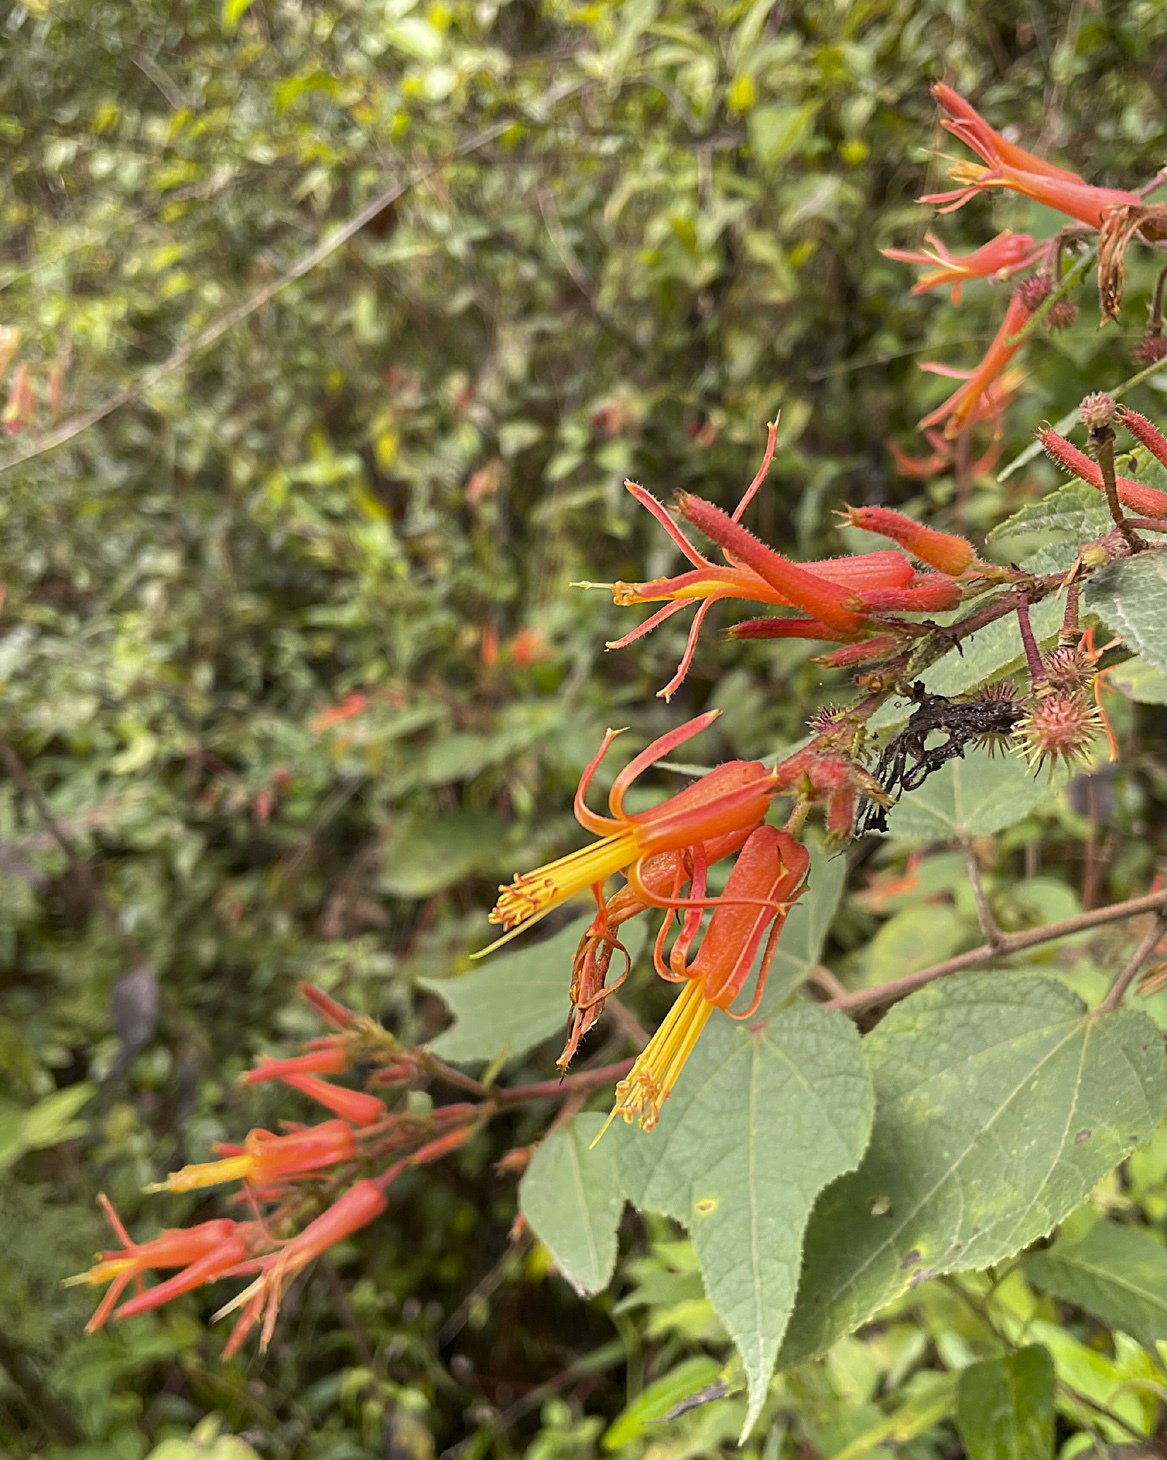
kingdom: Plantae
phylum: Tracheophyta
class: Magnoliopsida
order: Malvales
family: Malvaceae
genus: Triumfetta
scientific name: Triumfetta speciosa
